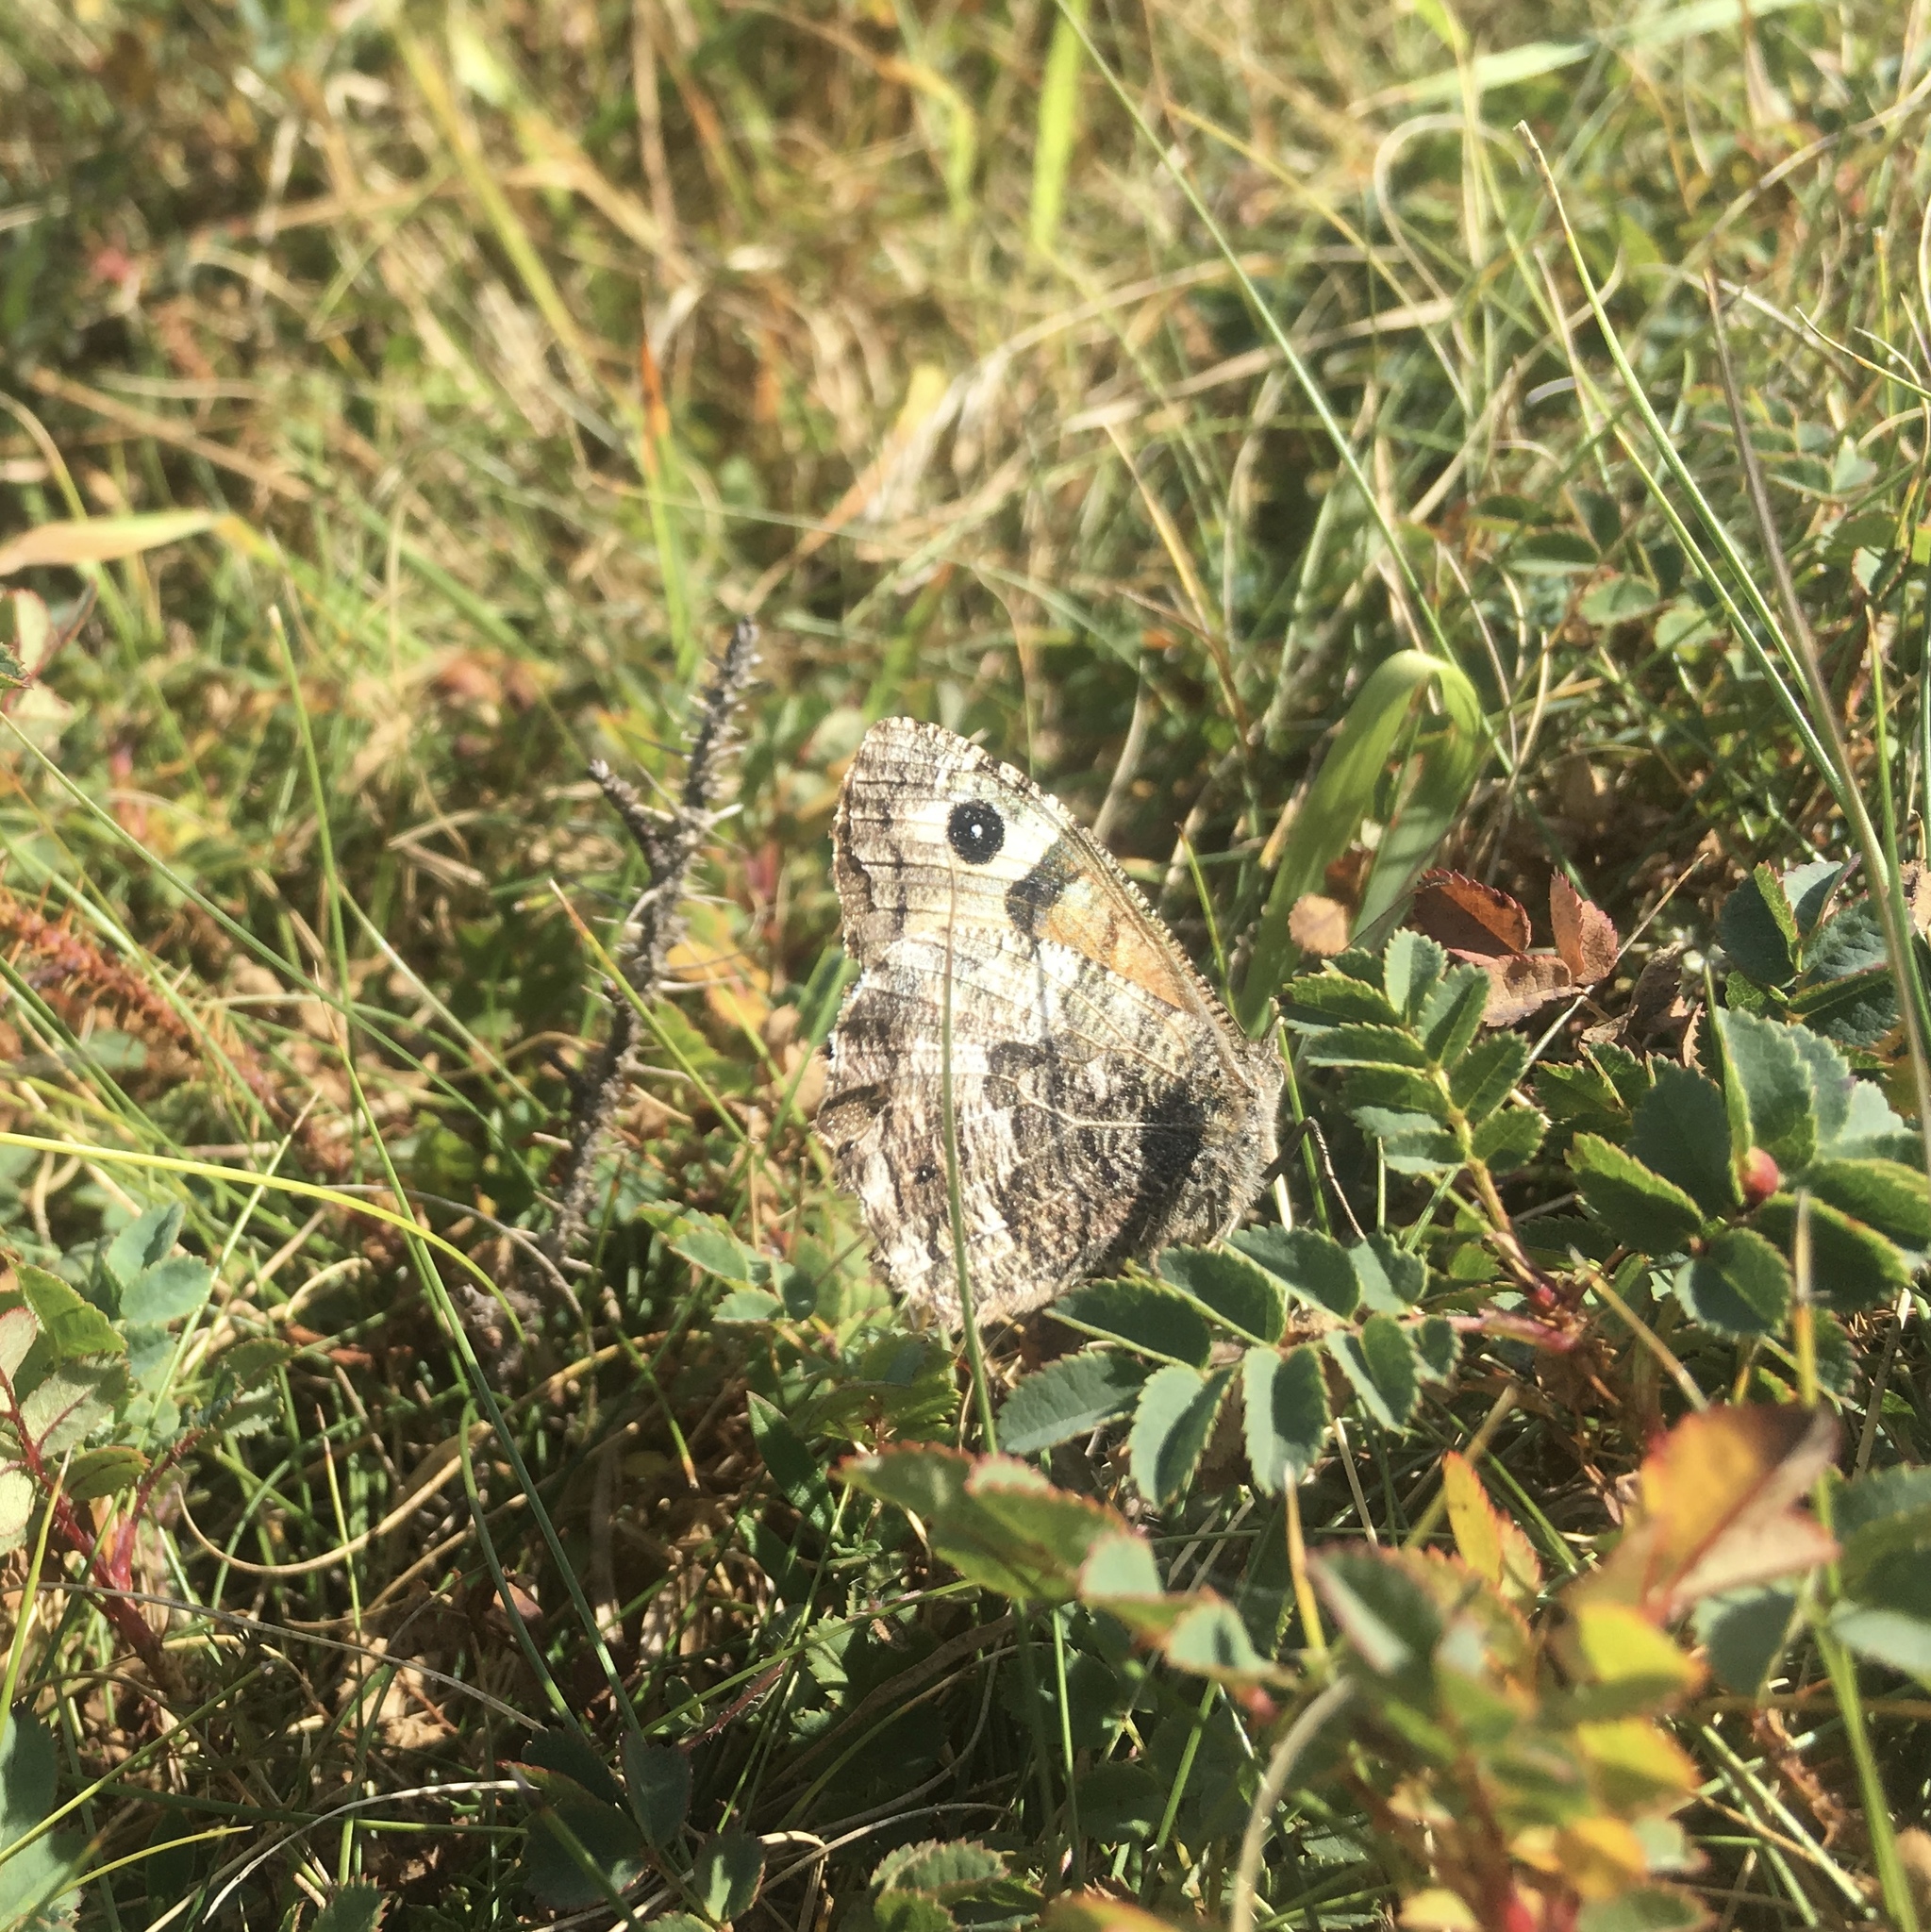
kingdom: Animalia
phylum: Arthropoda
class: Insecta
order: Lepidoptera
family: Nymphalidae
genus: Hipparchia
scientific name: Hipparchia semele
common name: Grayling
